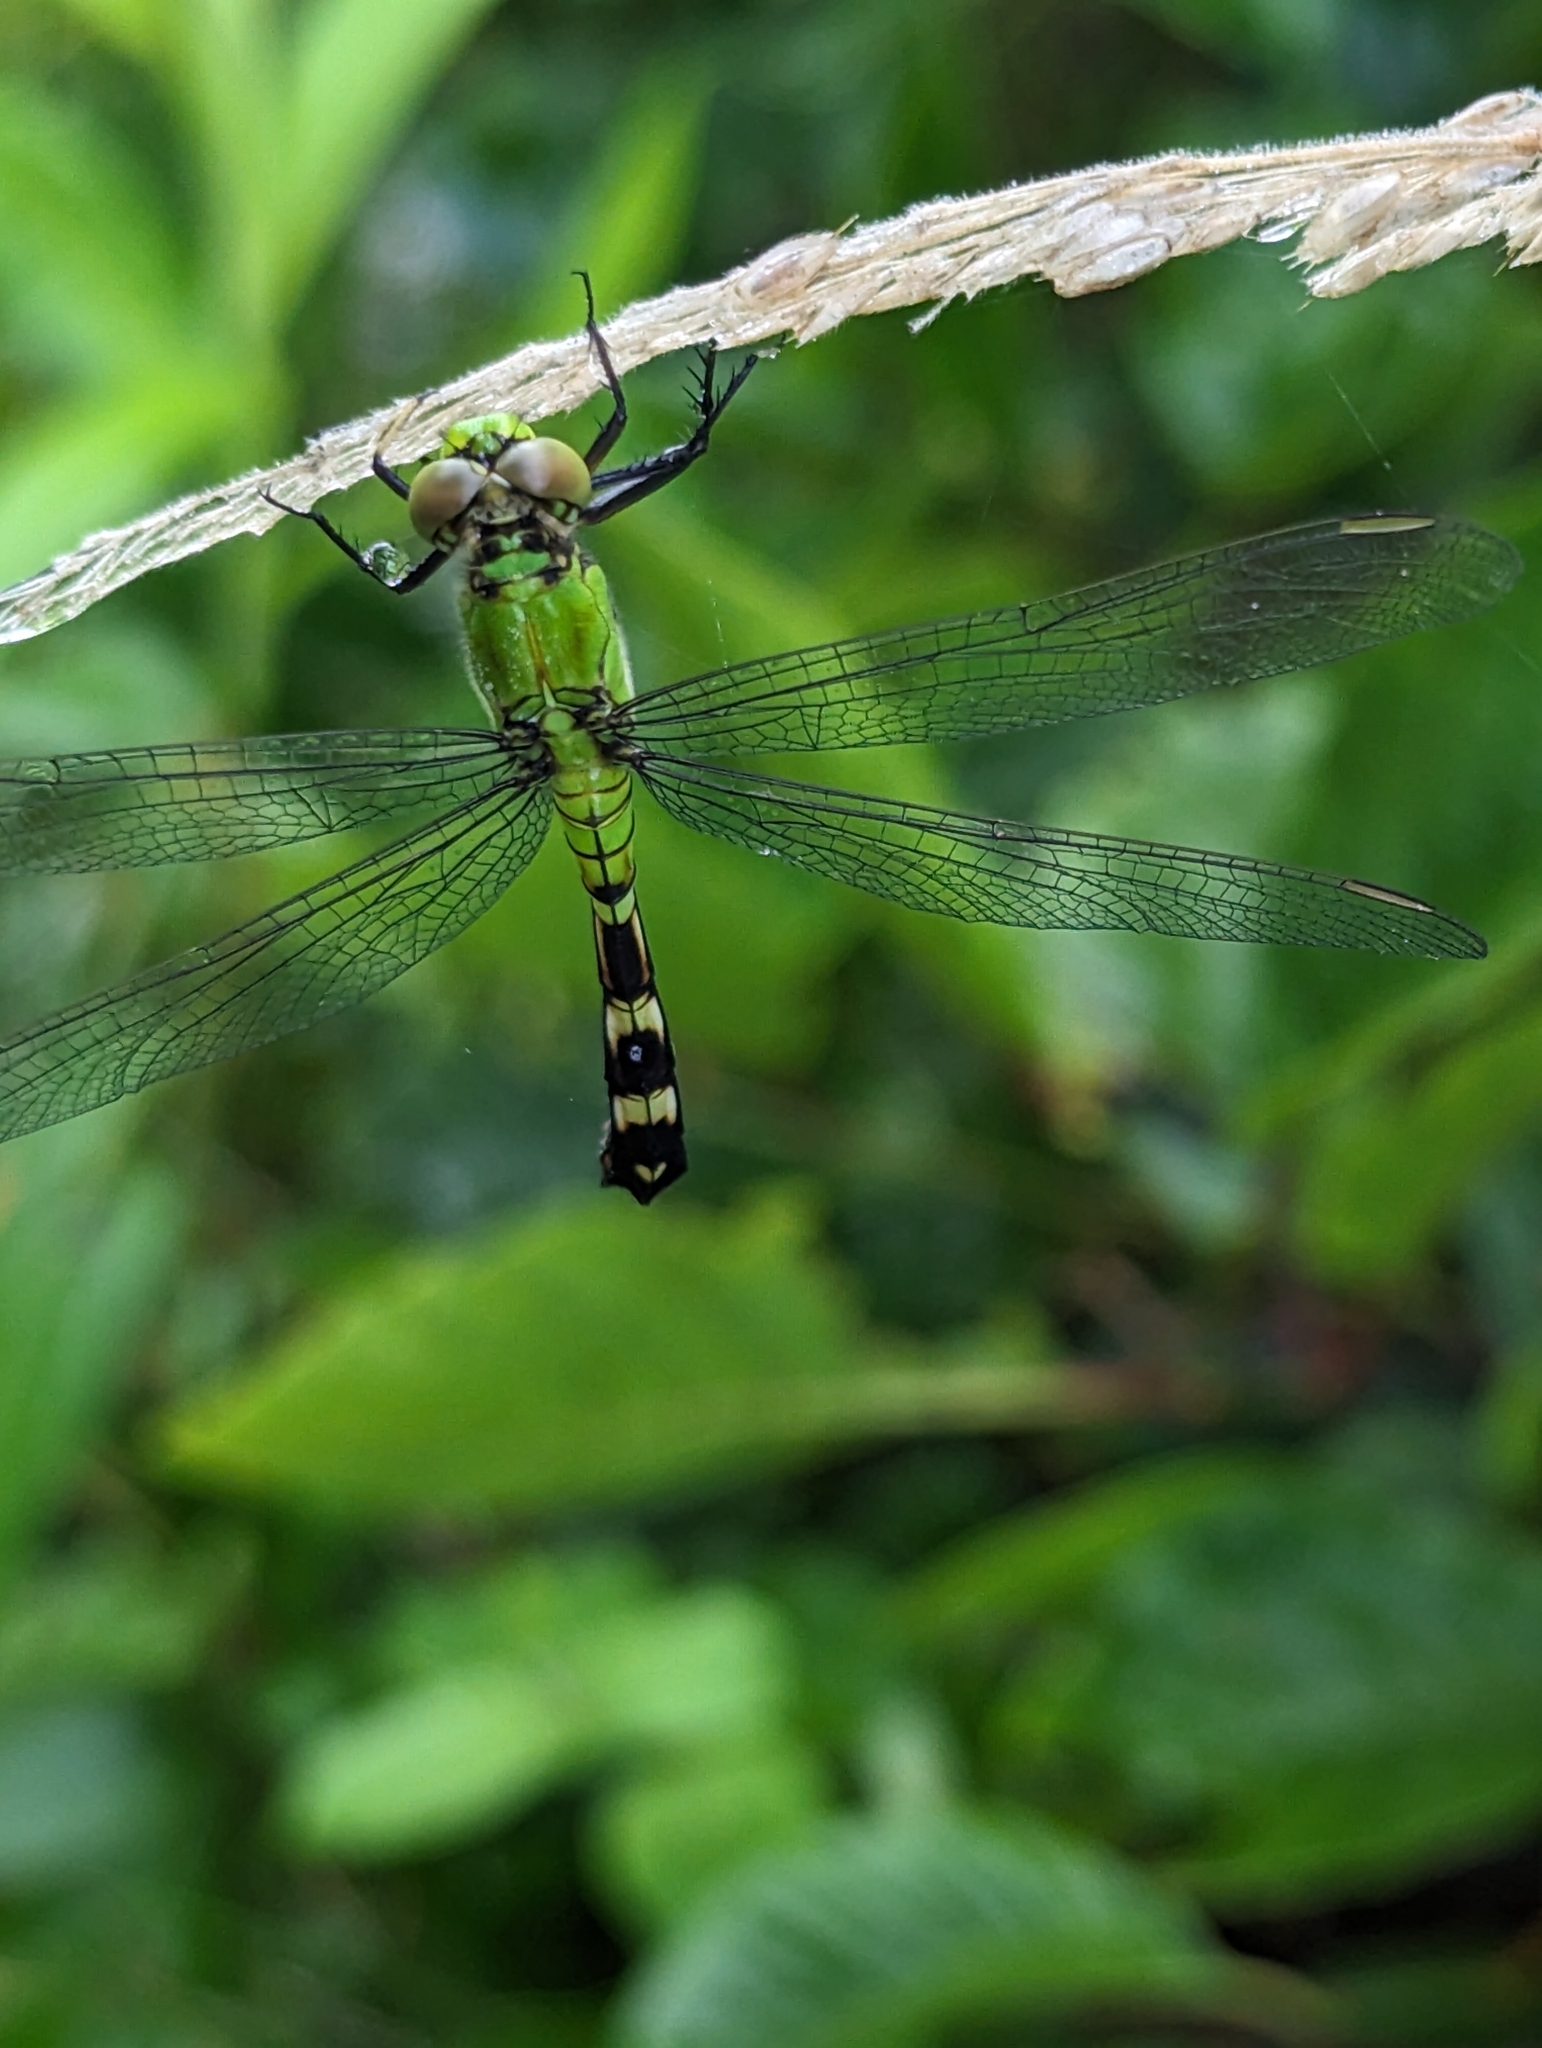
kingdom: Animalia
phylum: Arthropoda
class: Insecta
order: Odonata
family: Libellulidae
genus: Erythemis
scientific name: Erythemis simplicicollis
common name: Eastern pondhawk
